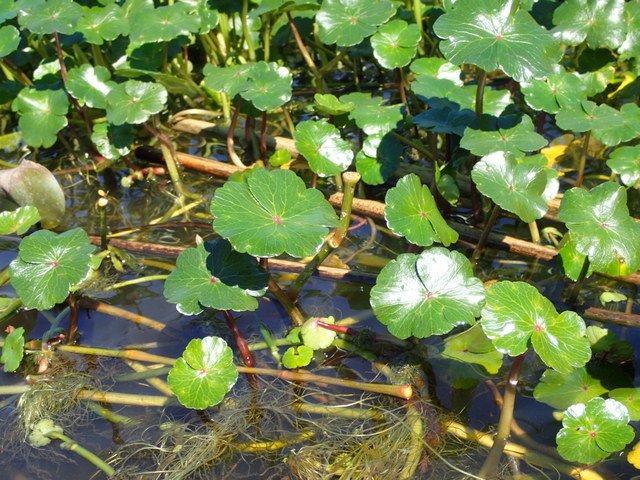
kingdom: Plantae
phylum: Tracheophyta
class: Magnoliopsida
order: Apiales
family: Araliaceae
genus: Hydrocotyle
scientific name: Hydrocotyle ranunculoides
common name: Floating pennywort
